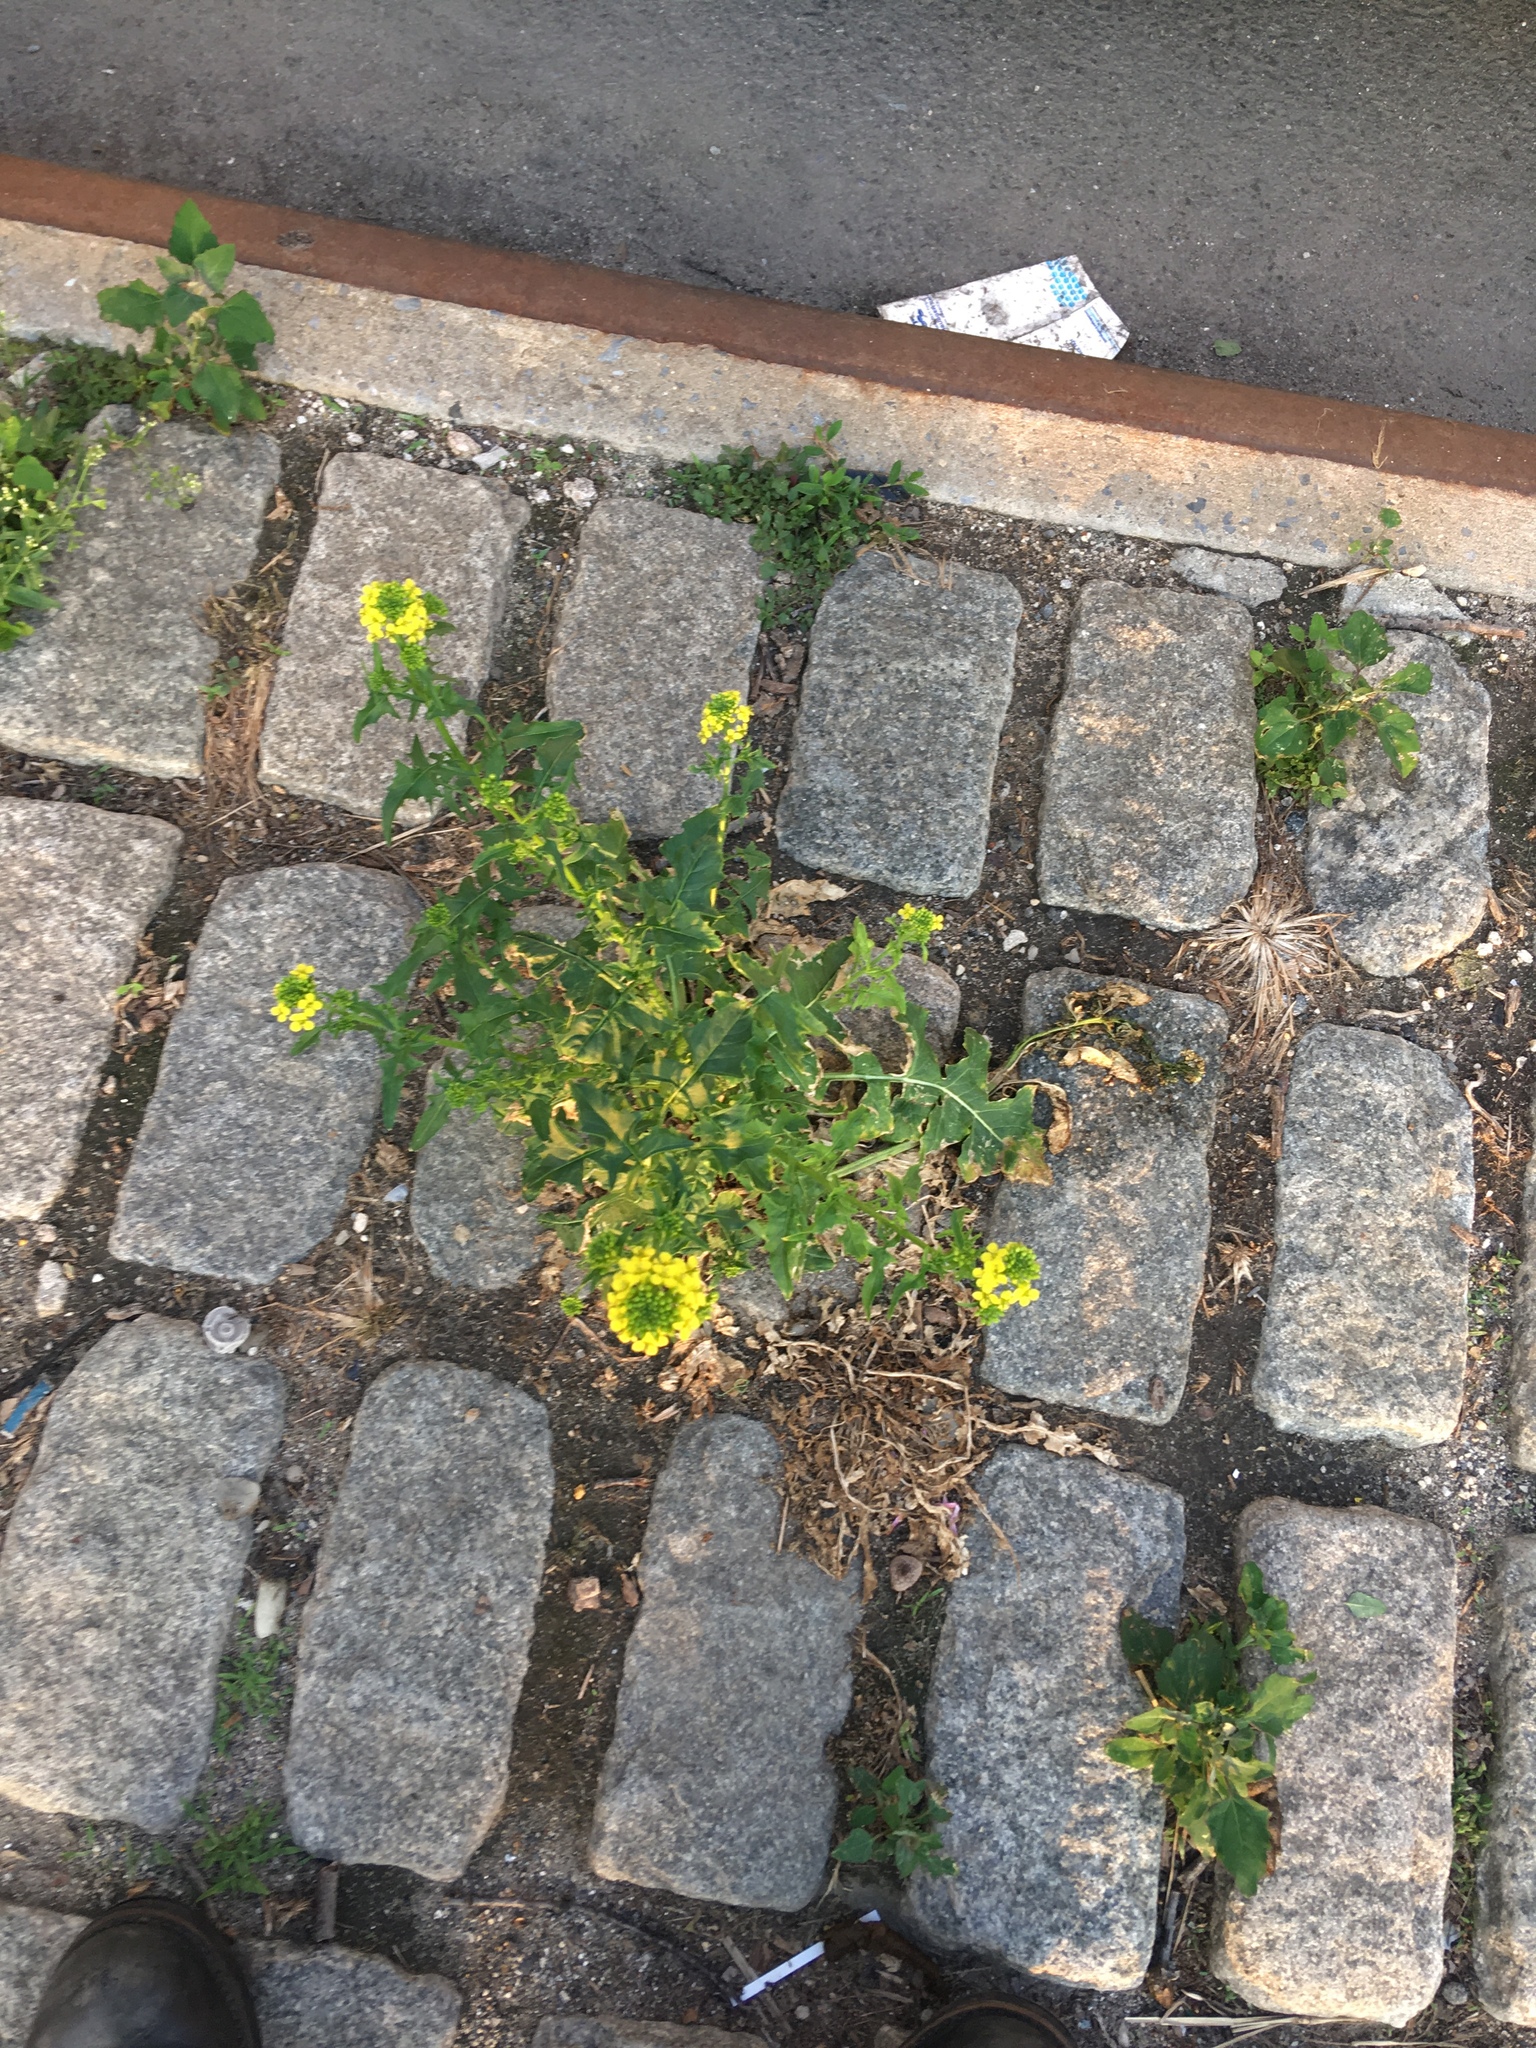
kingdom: Plantae
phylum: Tracheophyta
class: Magnoliopsida
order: Brassicales
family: Brassicaceae
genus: Sisymbrium
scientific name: Sisymbrium loeselii
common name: False london-rocket
